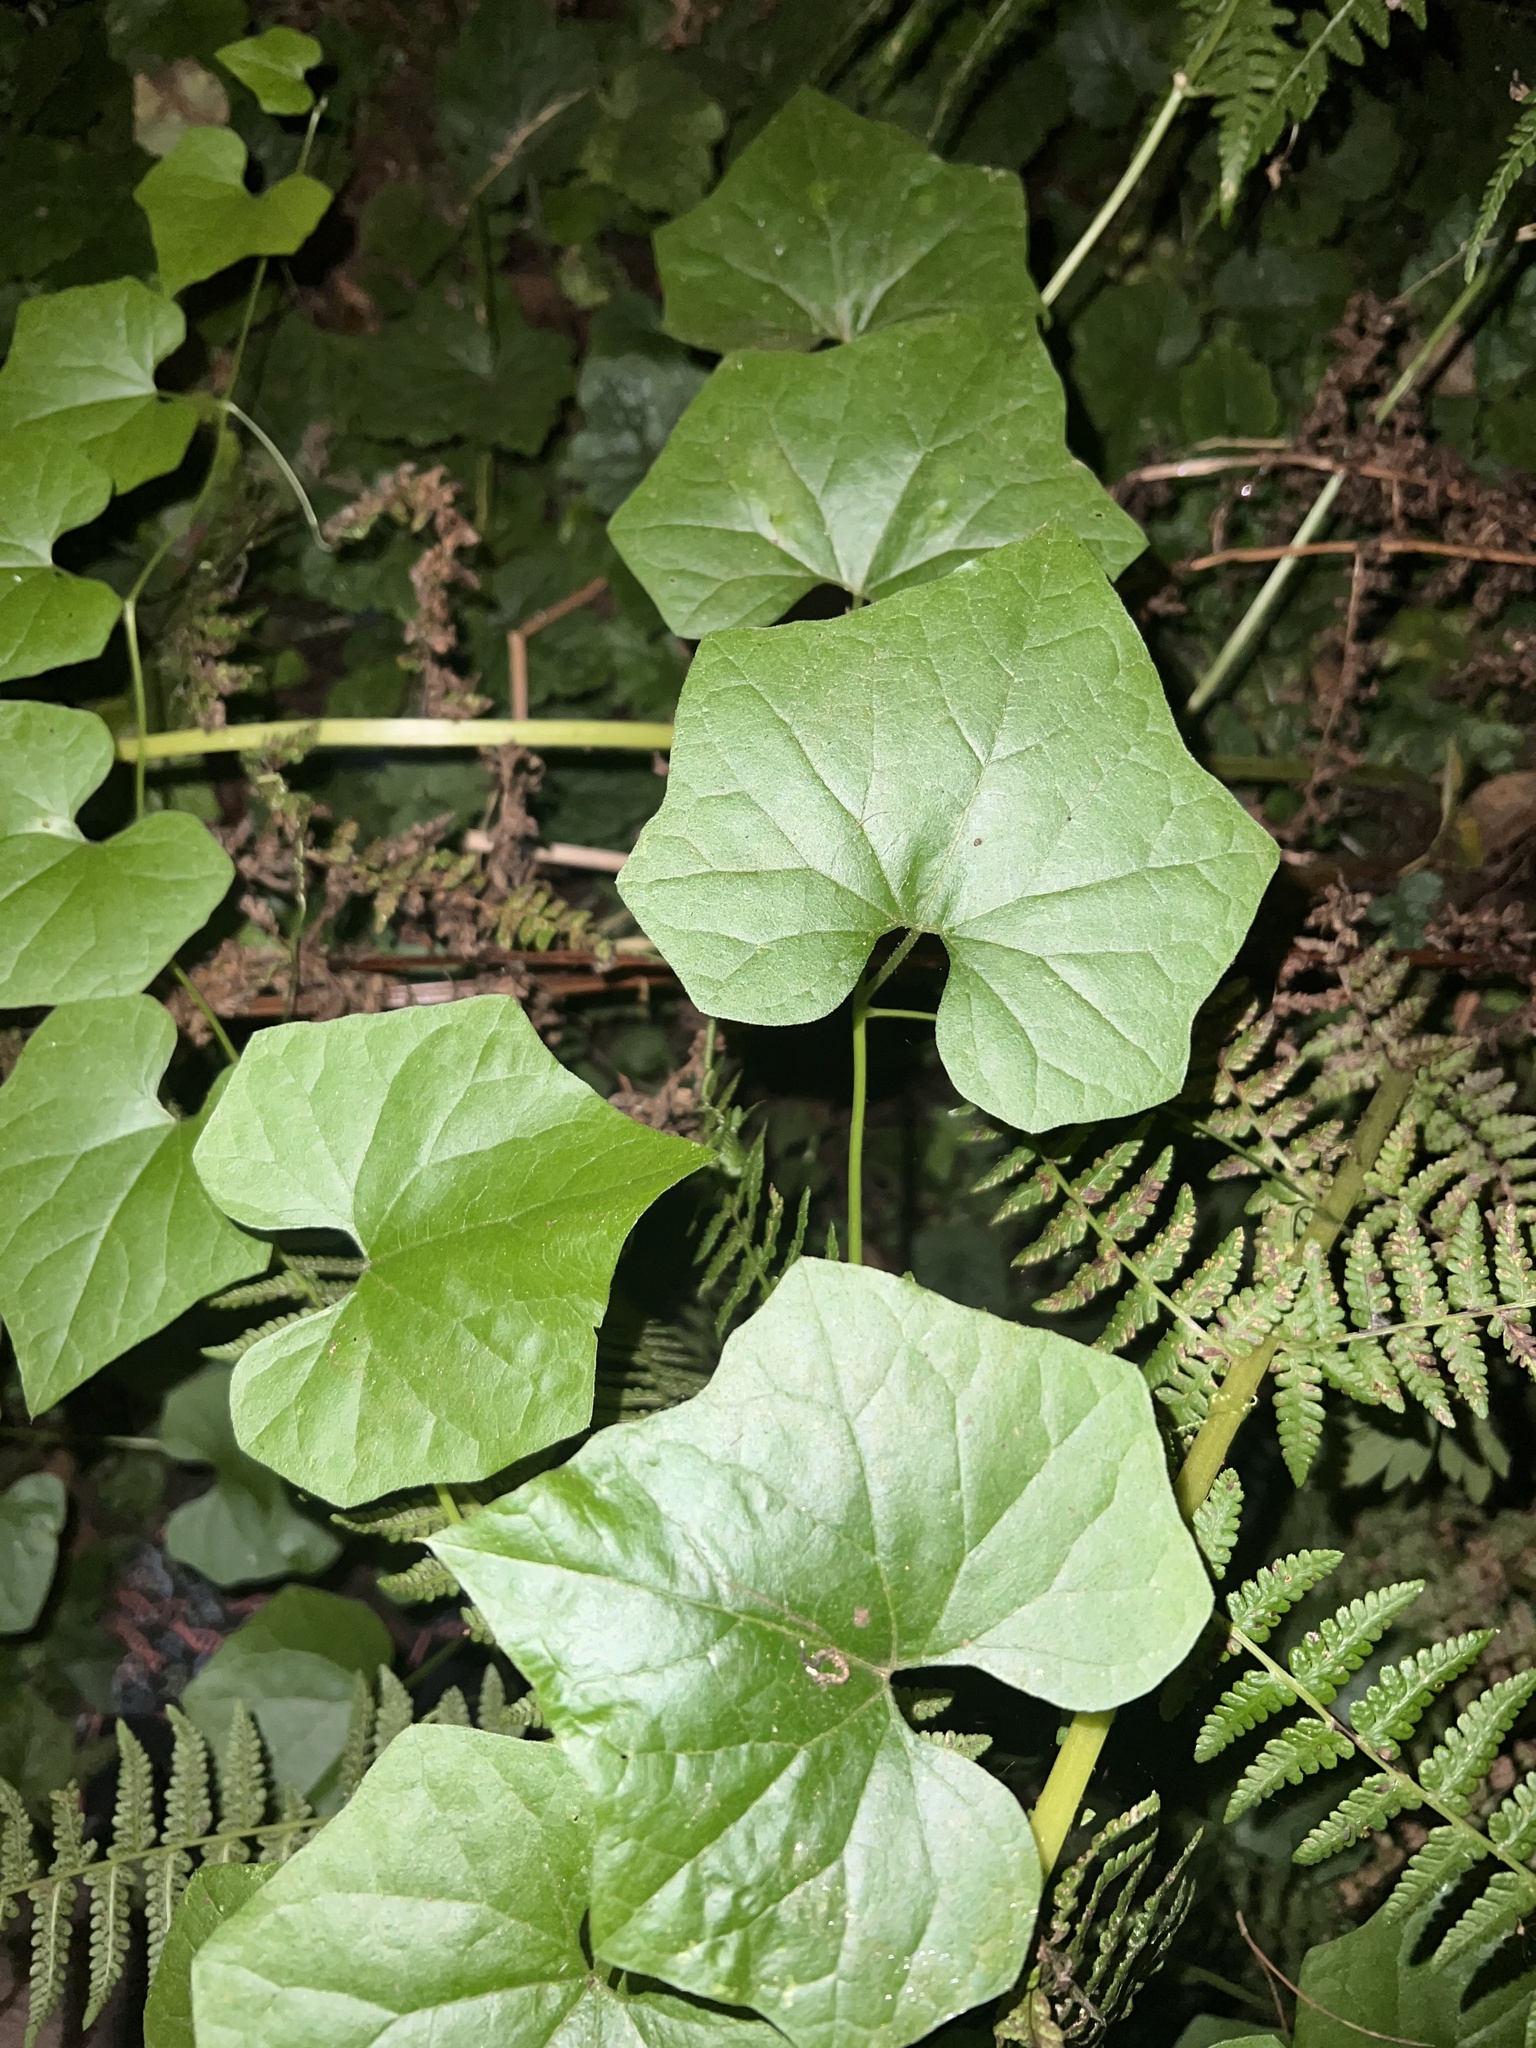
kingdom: Plantae
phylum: Tracheophyta
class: Magnoliopsida
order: Cucurbitales
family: Cucurbitaceae
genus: Marah
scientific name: Marah oregana
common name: Coastal manroot
